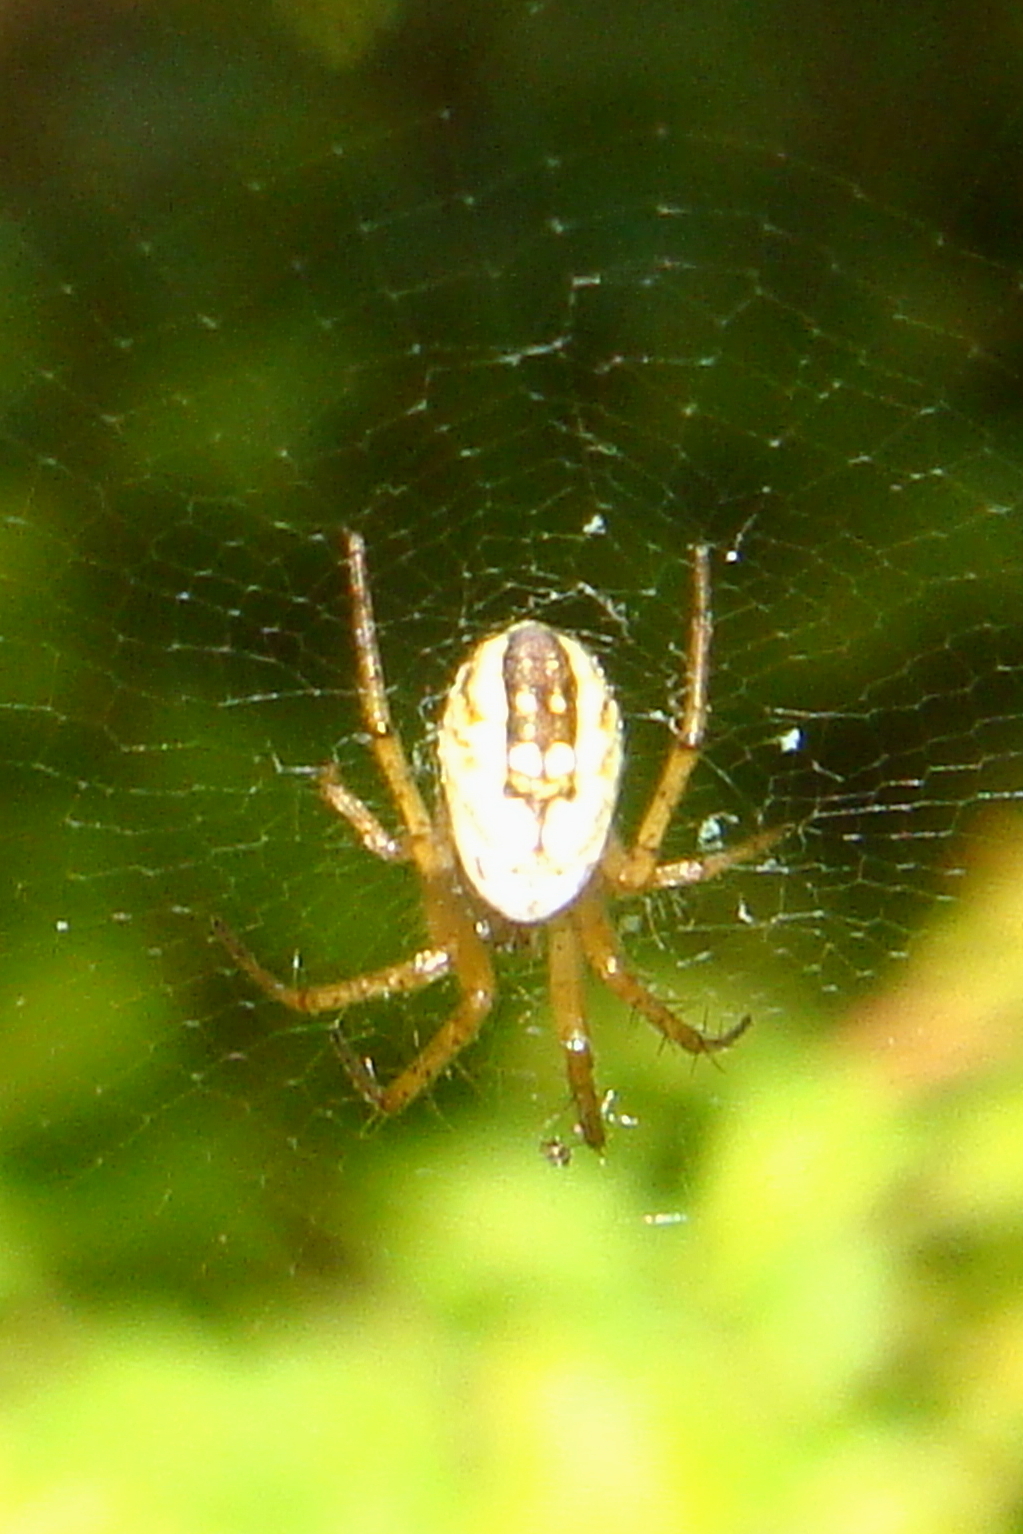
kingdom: Animalia
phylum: Arthropoda
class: Arachnida
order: Araneae
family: Araneidae
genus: Mangora
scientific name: Mangora acalypha
